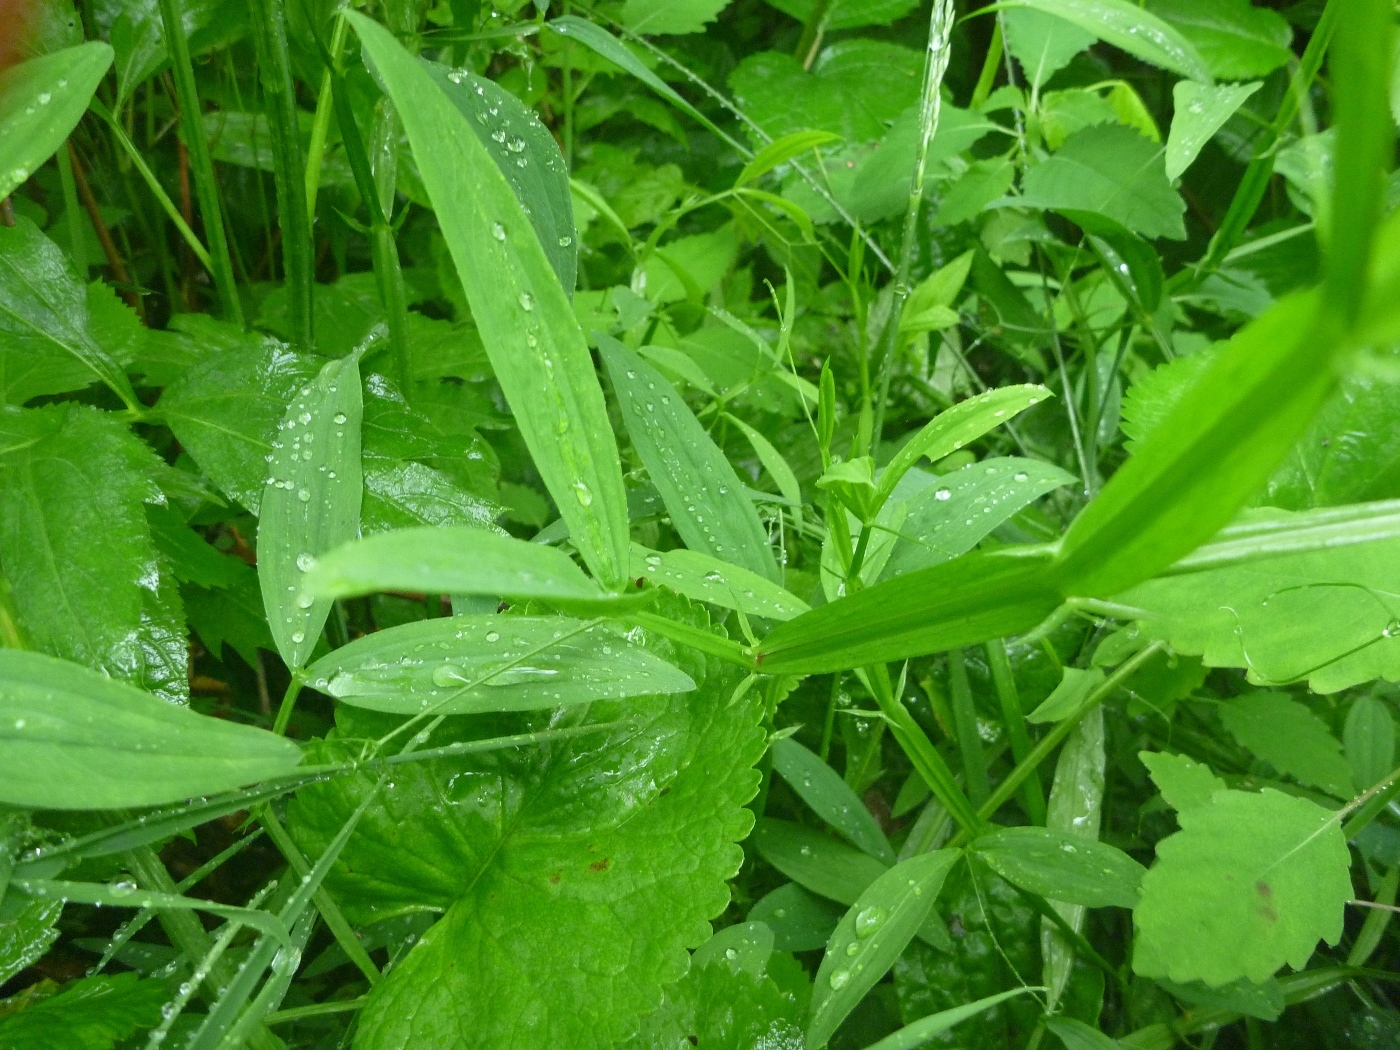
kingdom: Plantae
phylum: Tracheophyta
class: Magnoliopsida
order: Fabales
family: Fabaceae
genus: Lathyrus
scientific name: Lathyrus latifolius
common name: Perennial pea
